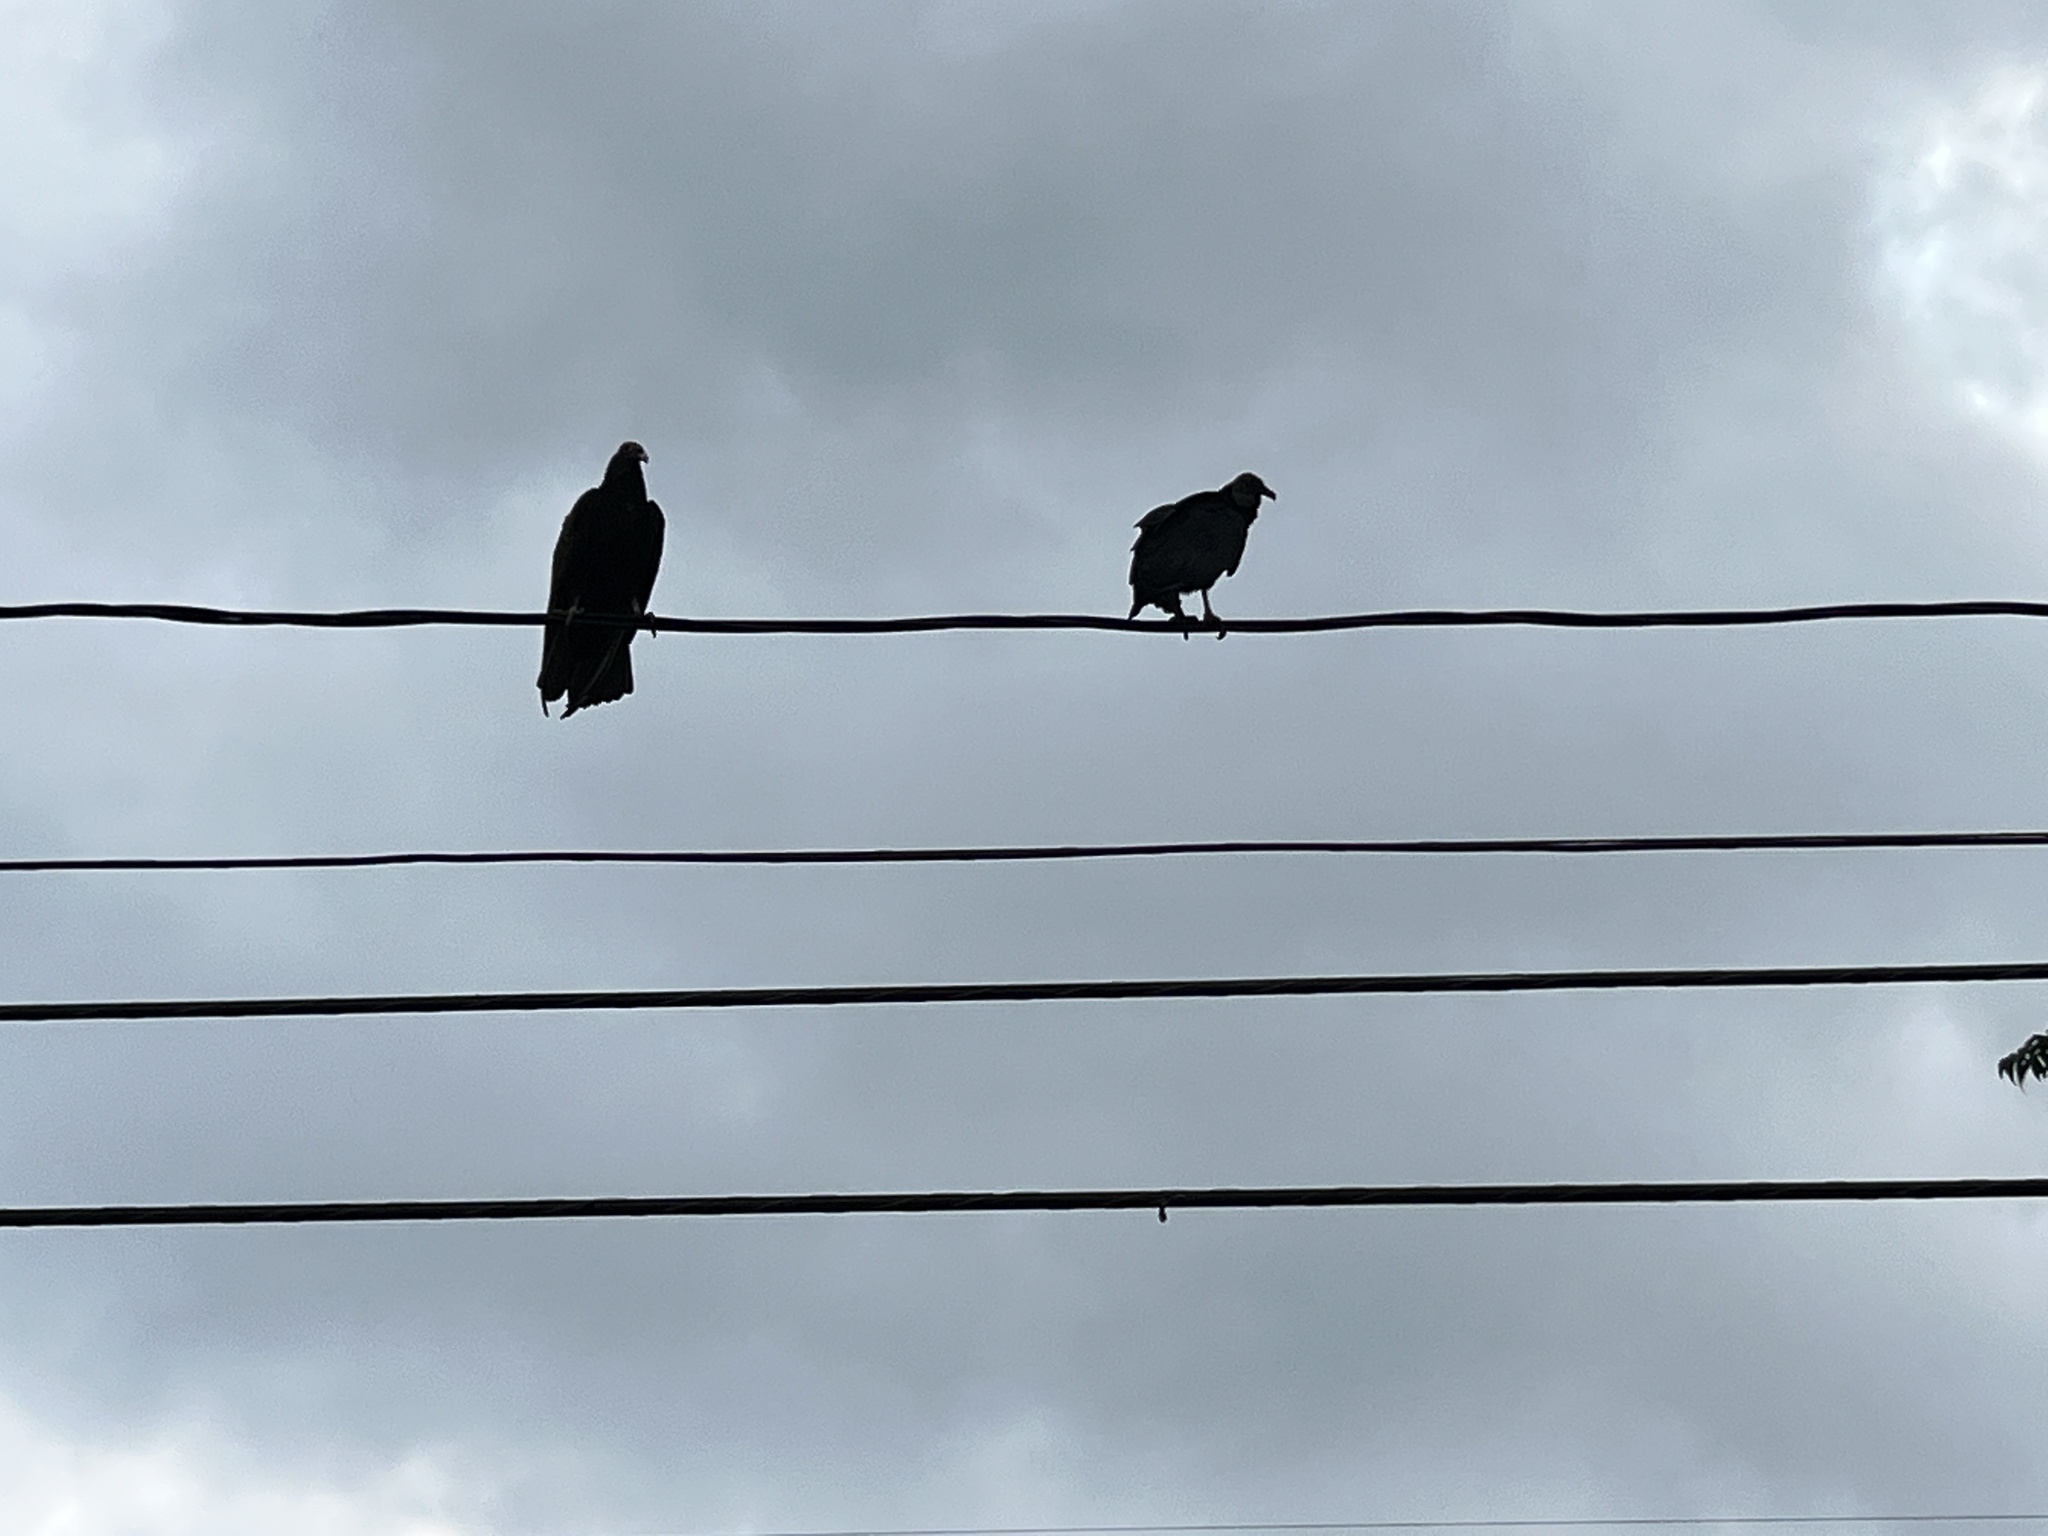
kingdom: Animalia
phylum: Chordata
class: Aves
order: Accipitriformes
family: Cathartidae
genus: Cathartes
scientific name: Cathartes aura
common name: Turkey vulture
